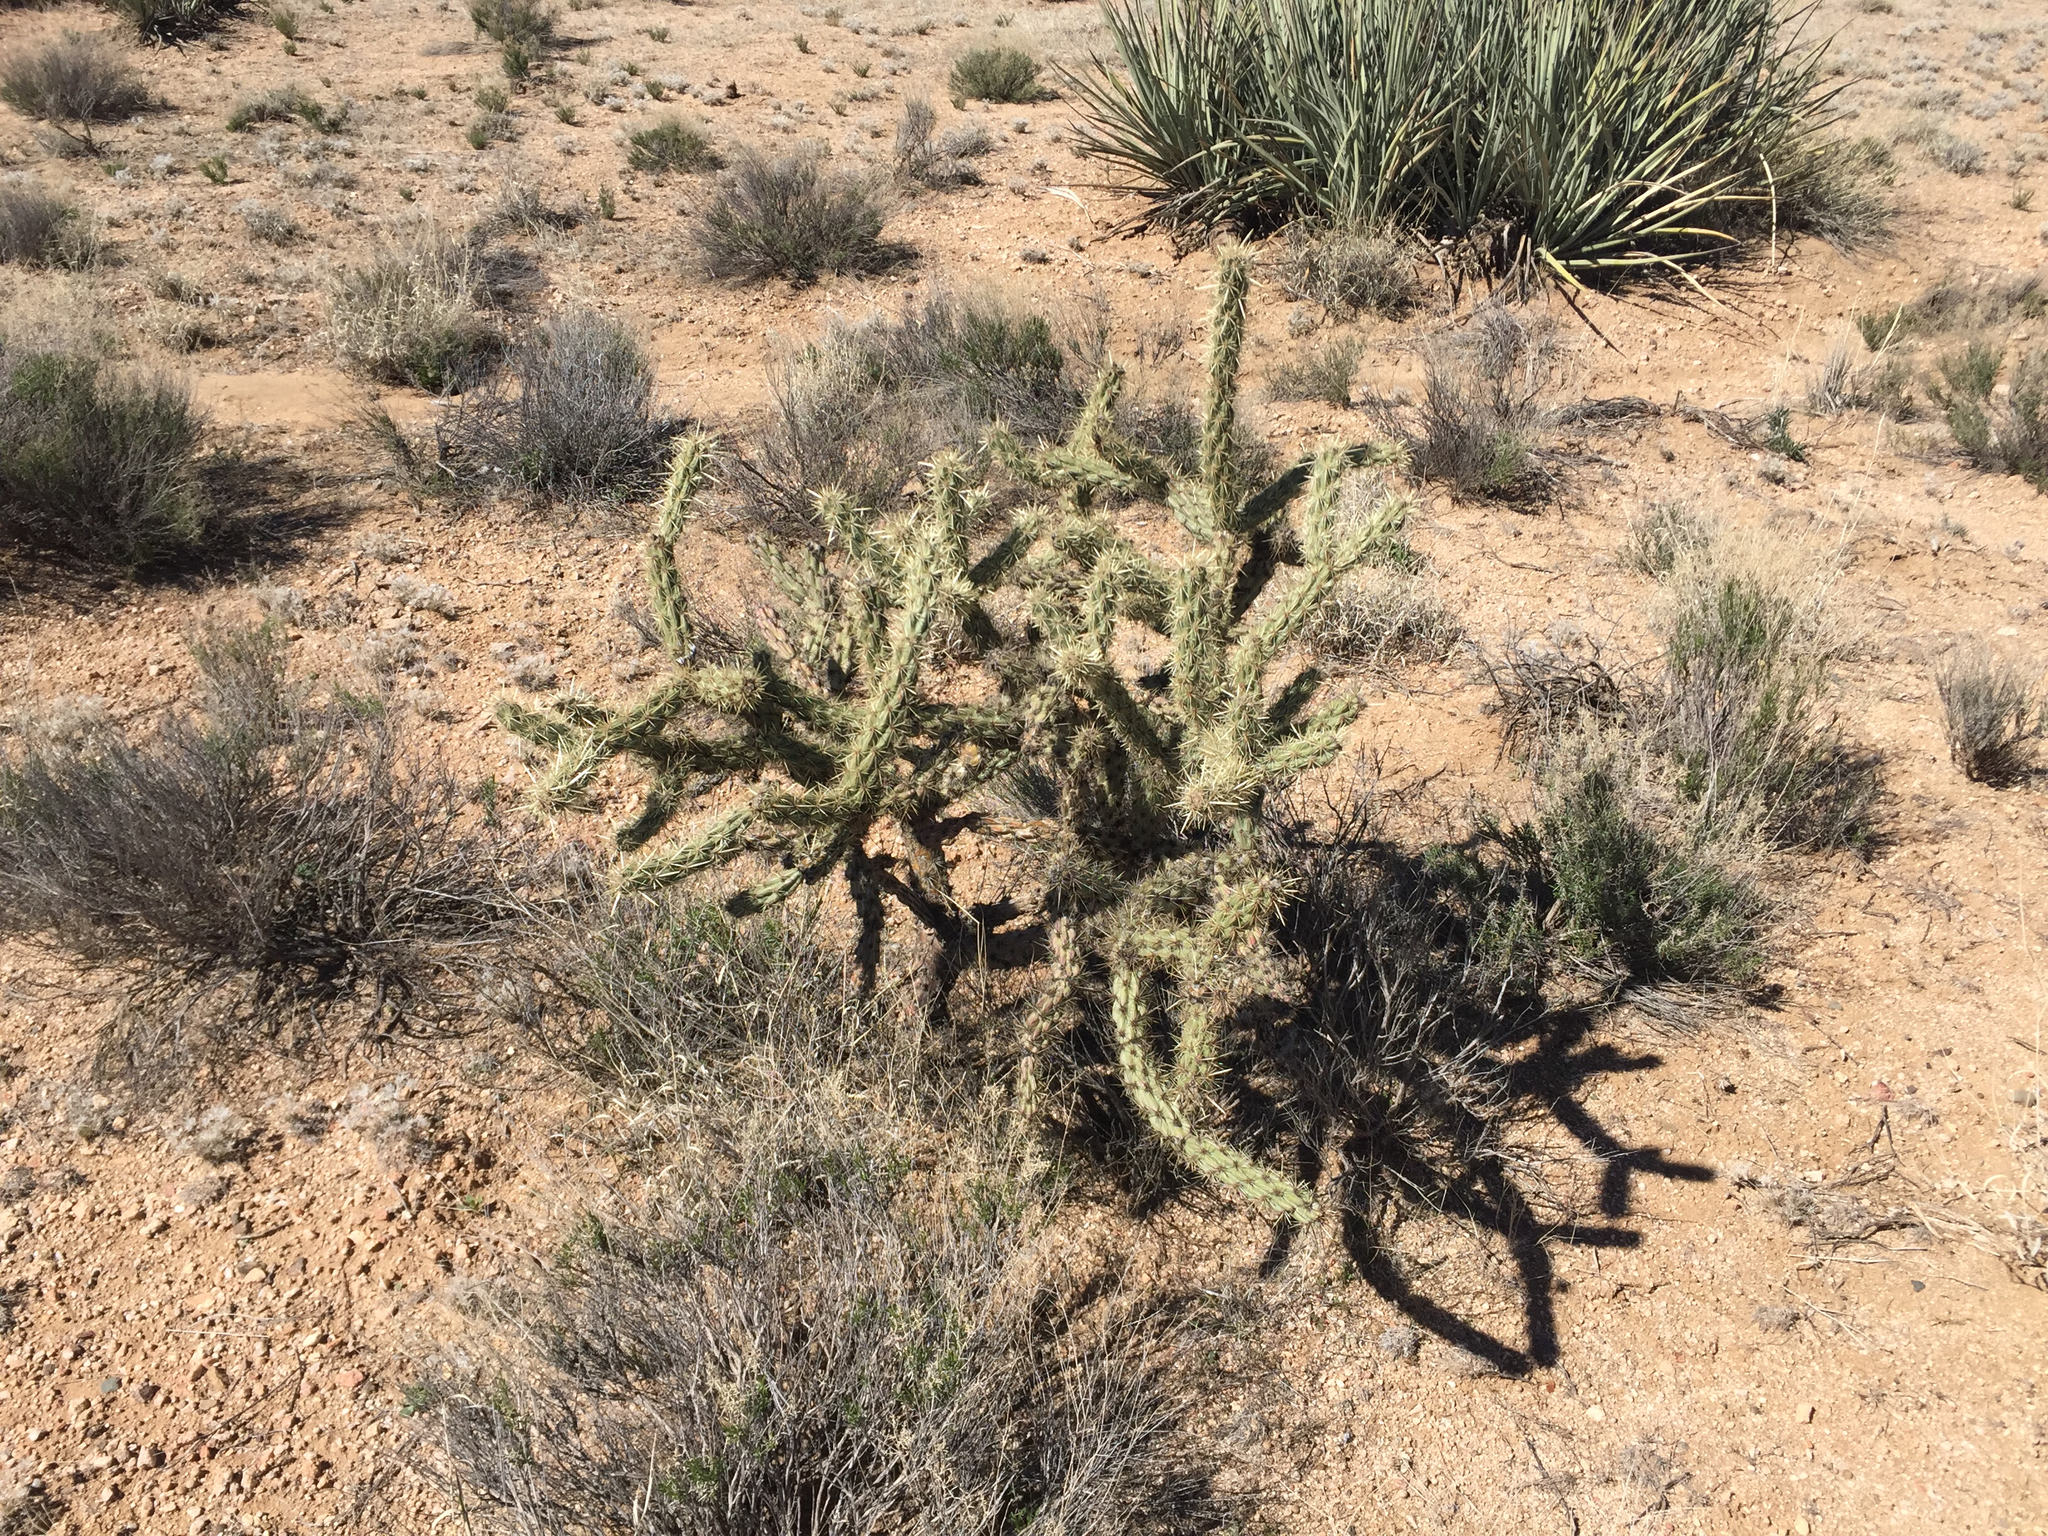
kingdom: Plantae
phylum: Tracheophyta
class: Magnoliopsida
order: Caryophyllales
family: Cactaceae
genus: Cylindropuntia
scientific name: Cylindropuntia acanthocarpa
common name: Buckhorn cholla
